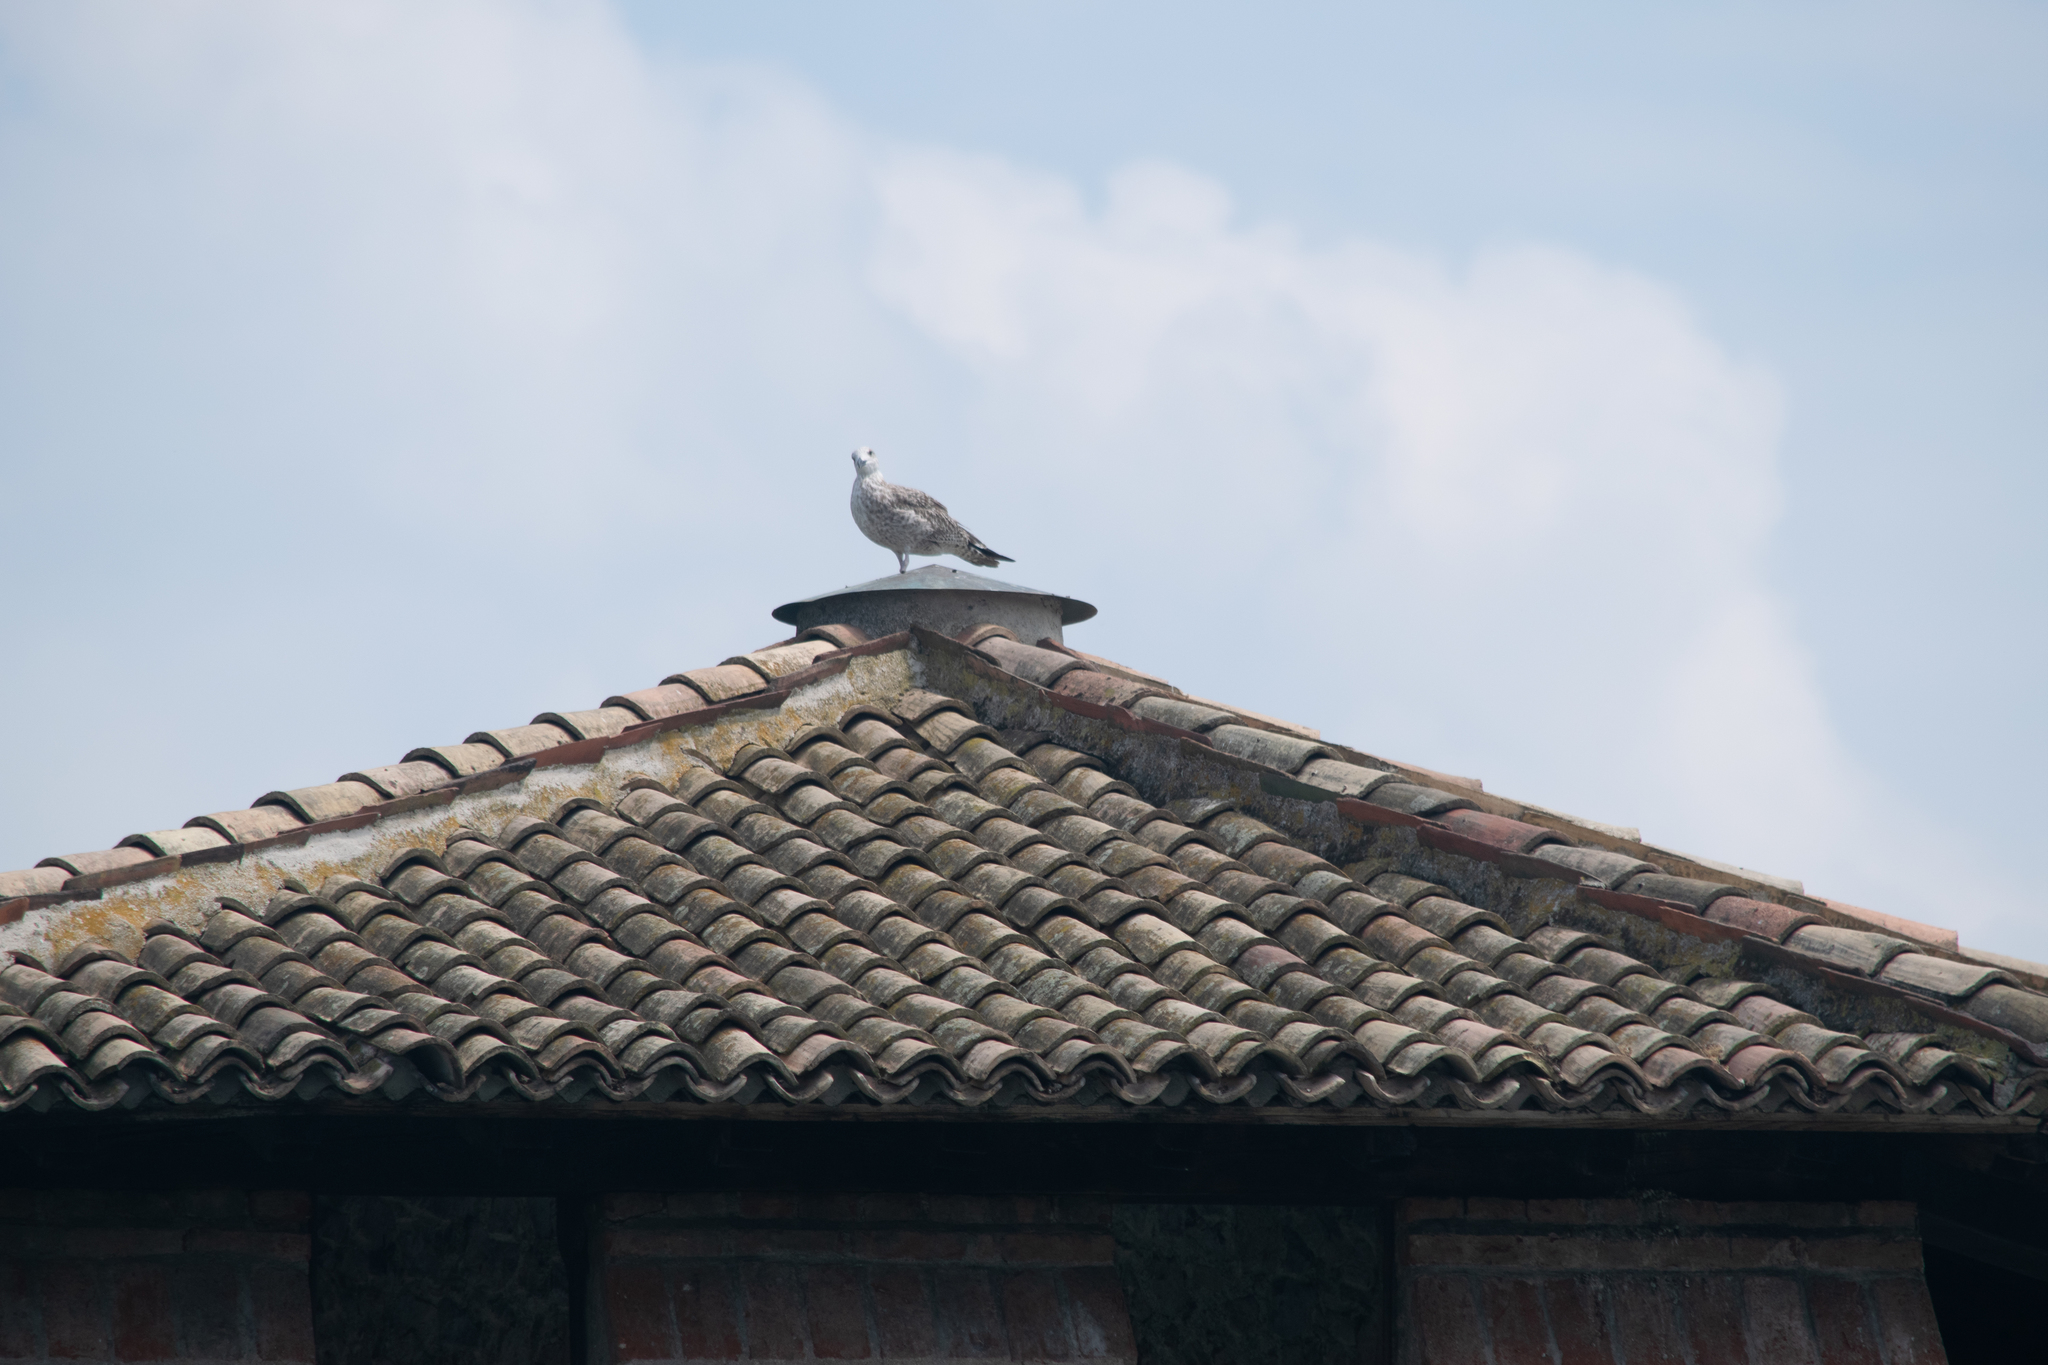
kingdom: Animalia
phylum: Chordata
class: Aves
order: Charadriiformes
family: Laridae
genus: Larus
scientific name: Larus michahellis
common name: Yellow-legged gull
